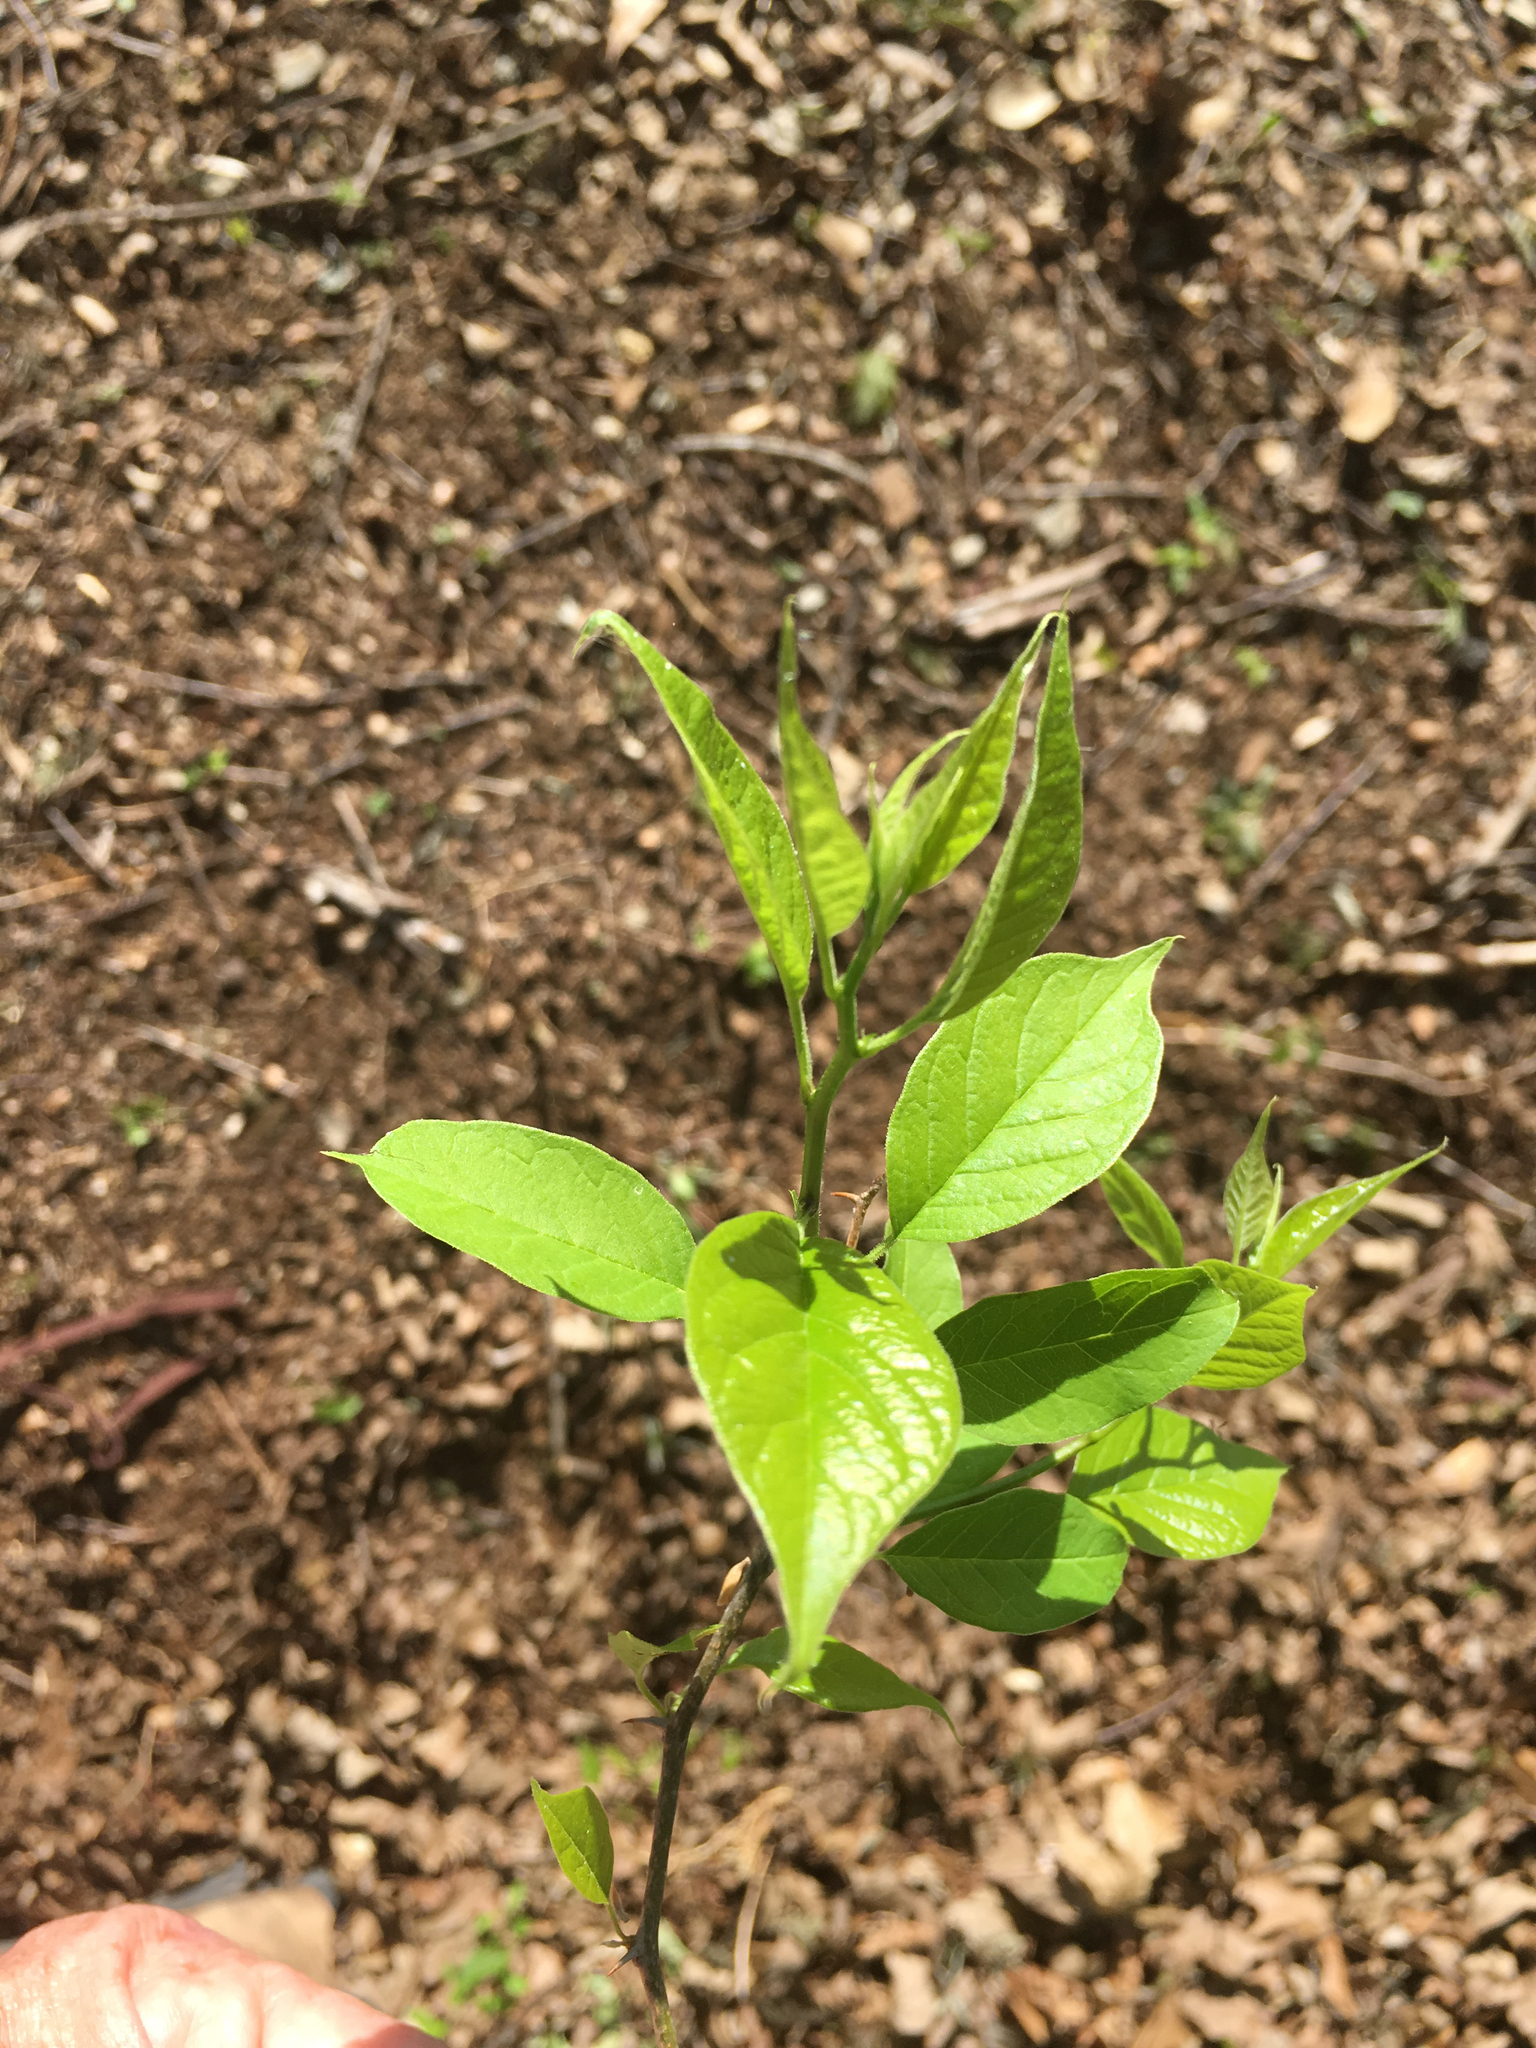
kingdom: Plantae
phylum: Tracheophyta
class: Magnoliopsida
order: Rosales
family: Moraceae
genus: Maclura
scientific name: Maclura pomifera
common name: Osage-orange
